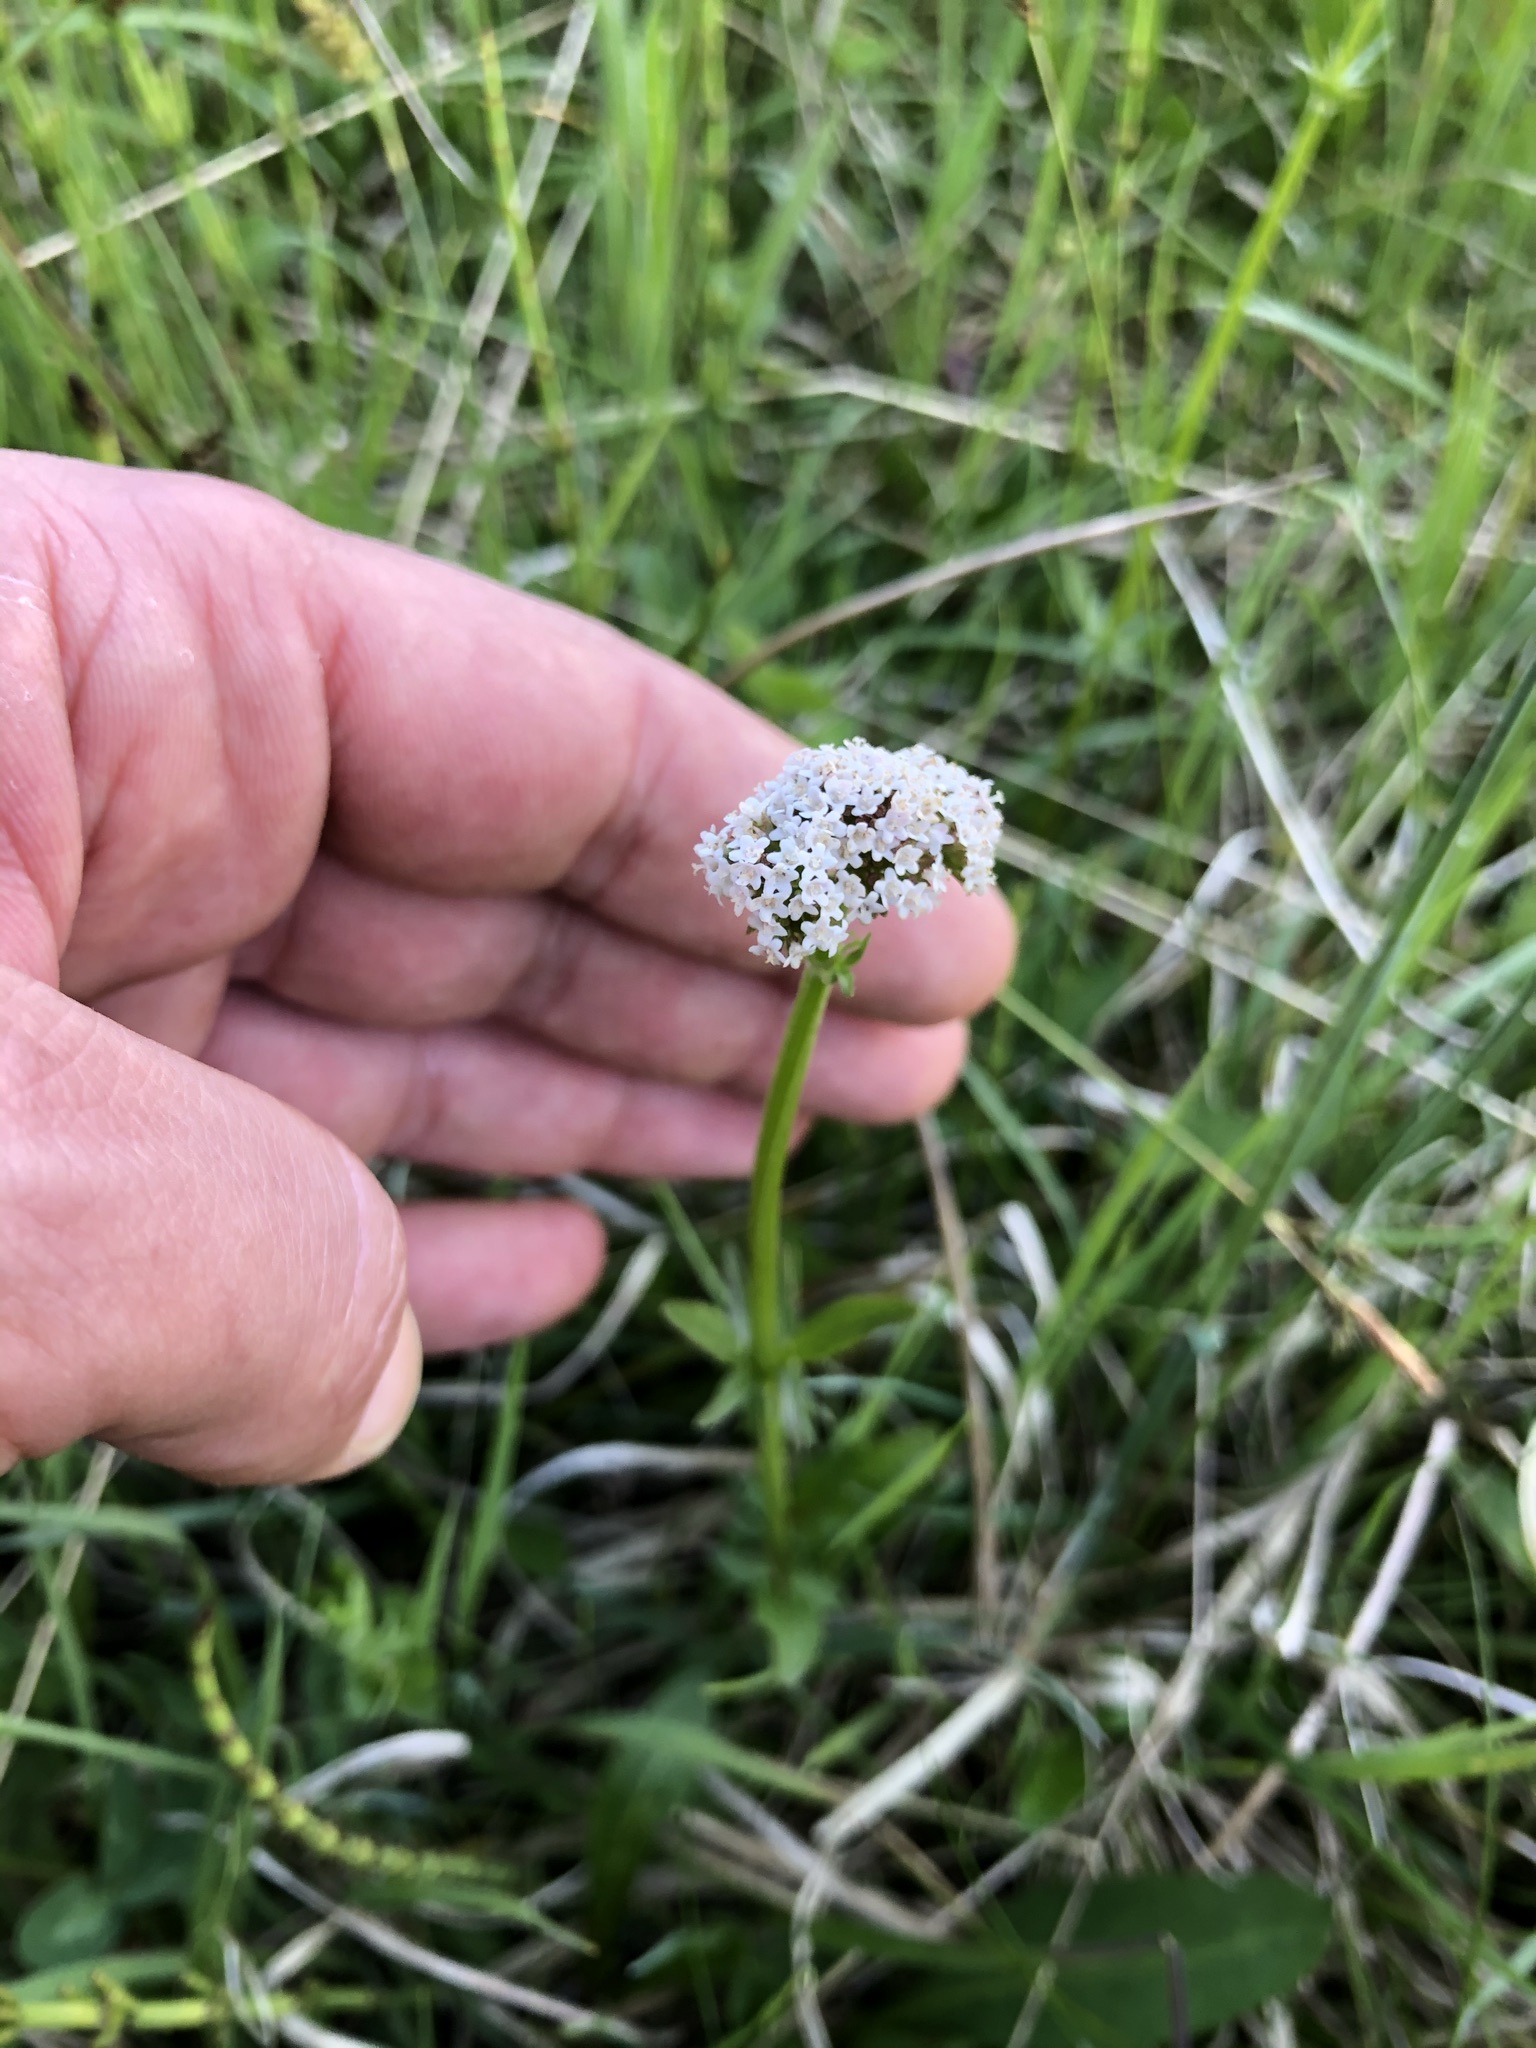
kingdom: Plantae
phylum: Tracheophyta
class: Magnoliopsida
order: Dipsacales
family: Caprifoliaceae
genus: Valeriana
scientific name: Valeriana dioica
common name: Marsh valerian
